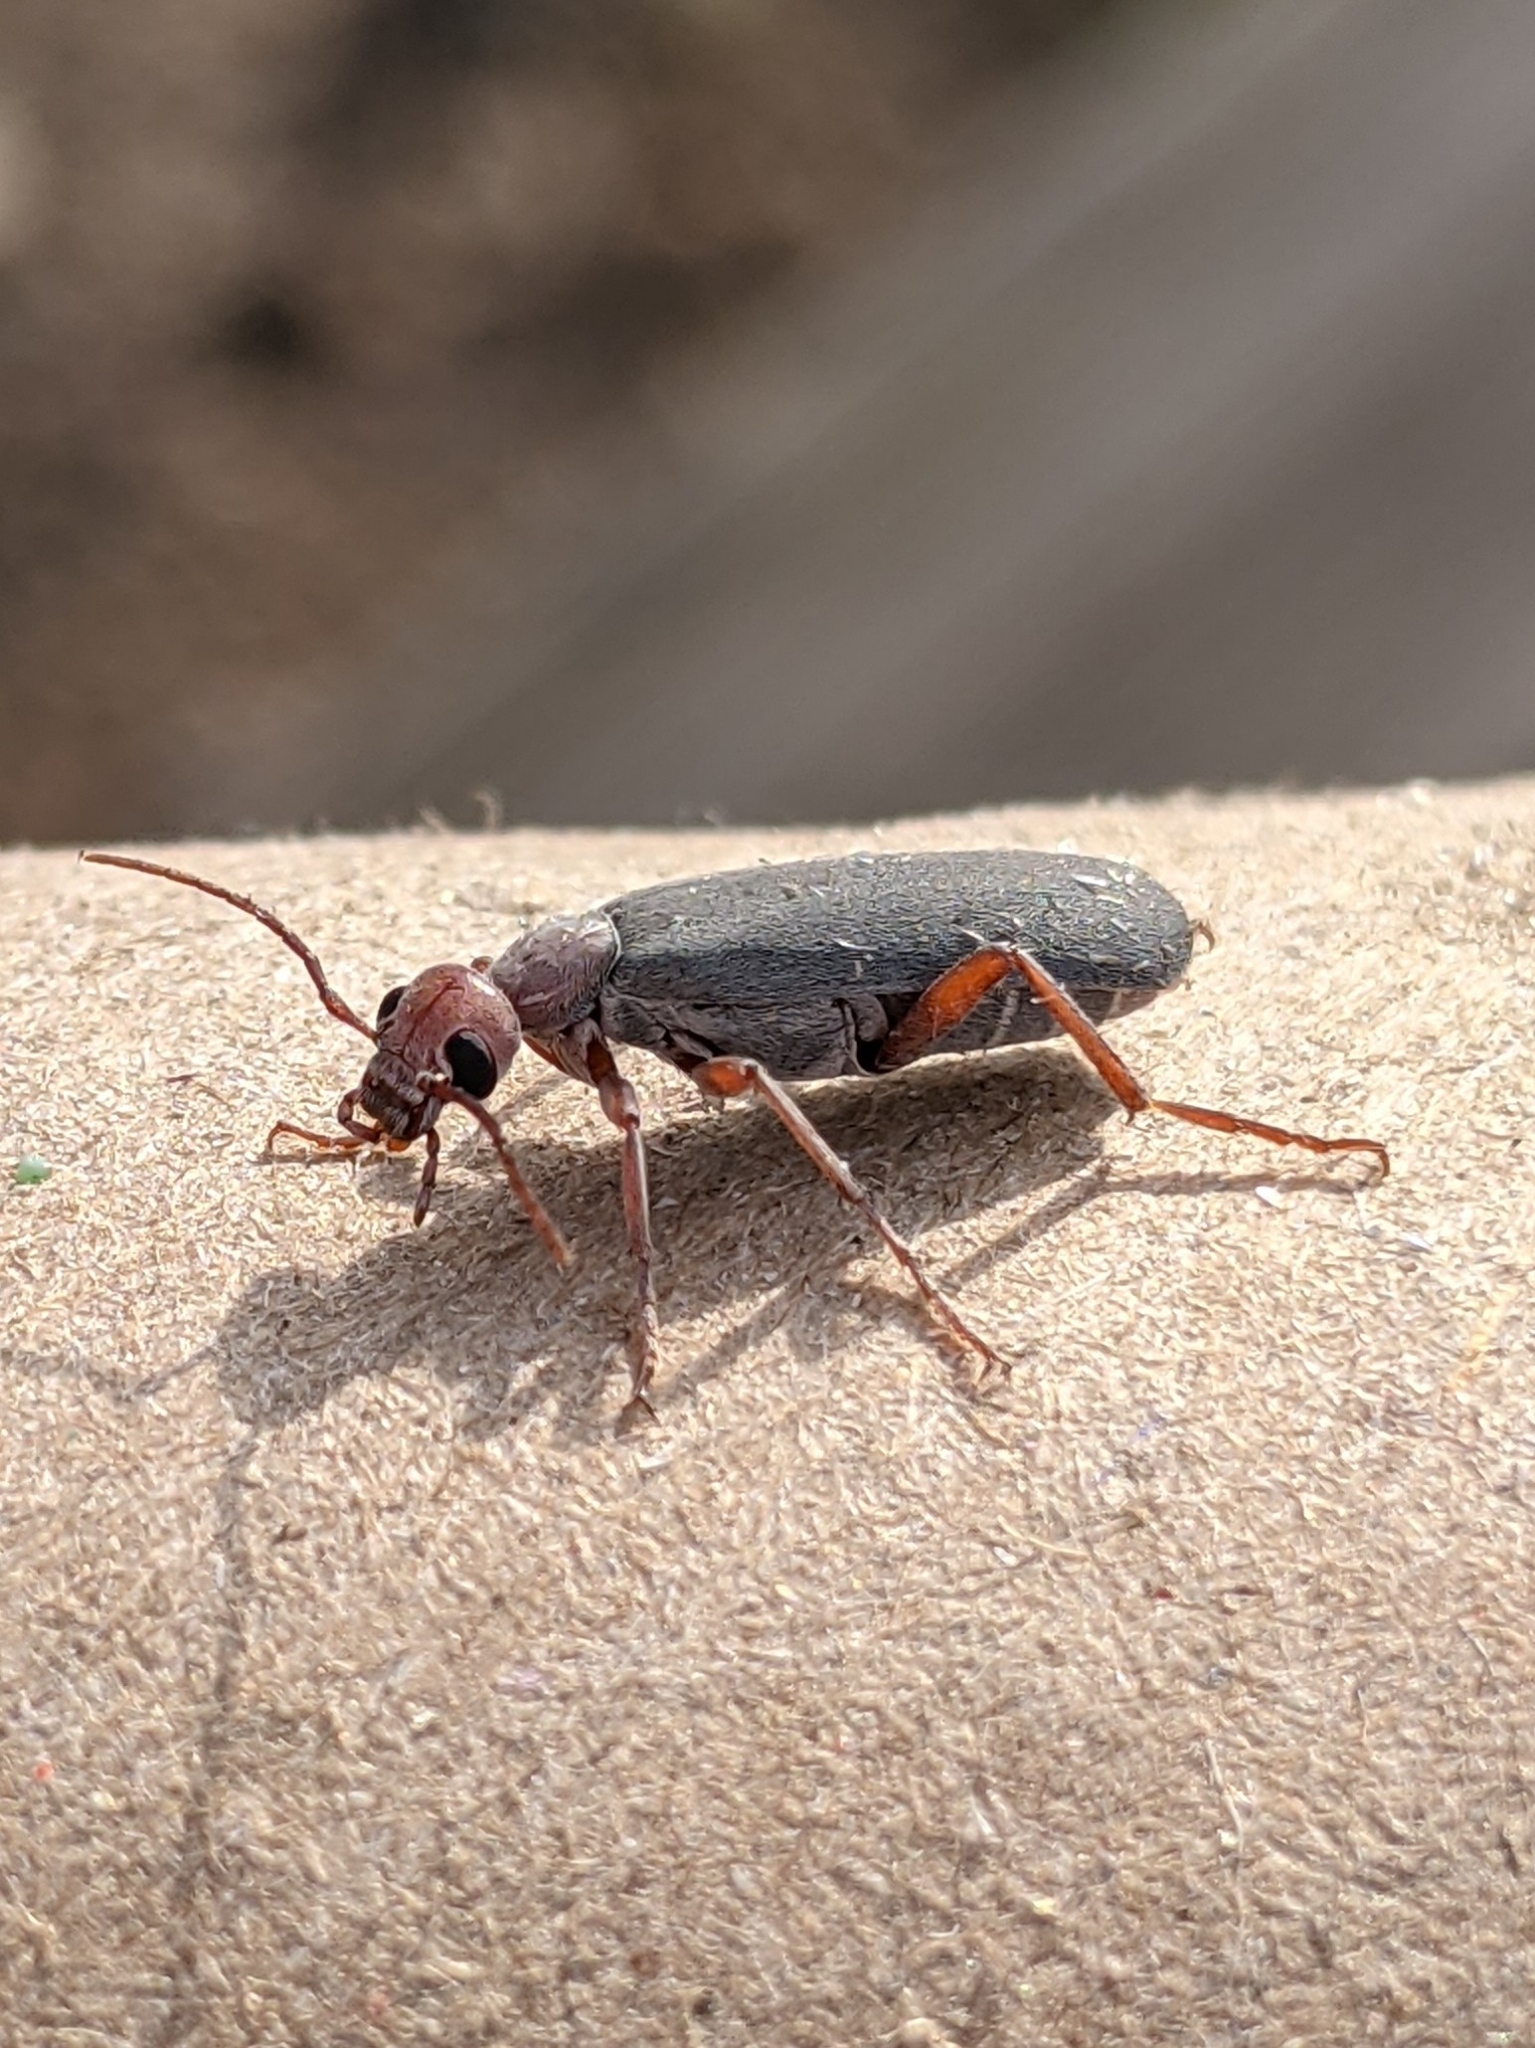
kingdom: Animalia
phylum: Arthropoda
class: Insecta
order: Coleoptera
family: Meloidae
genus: Epicauta
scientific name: Epicauta tenella
